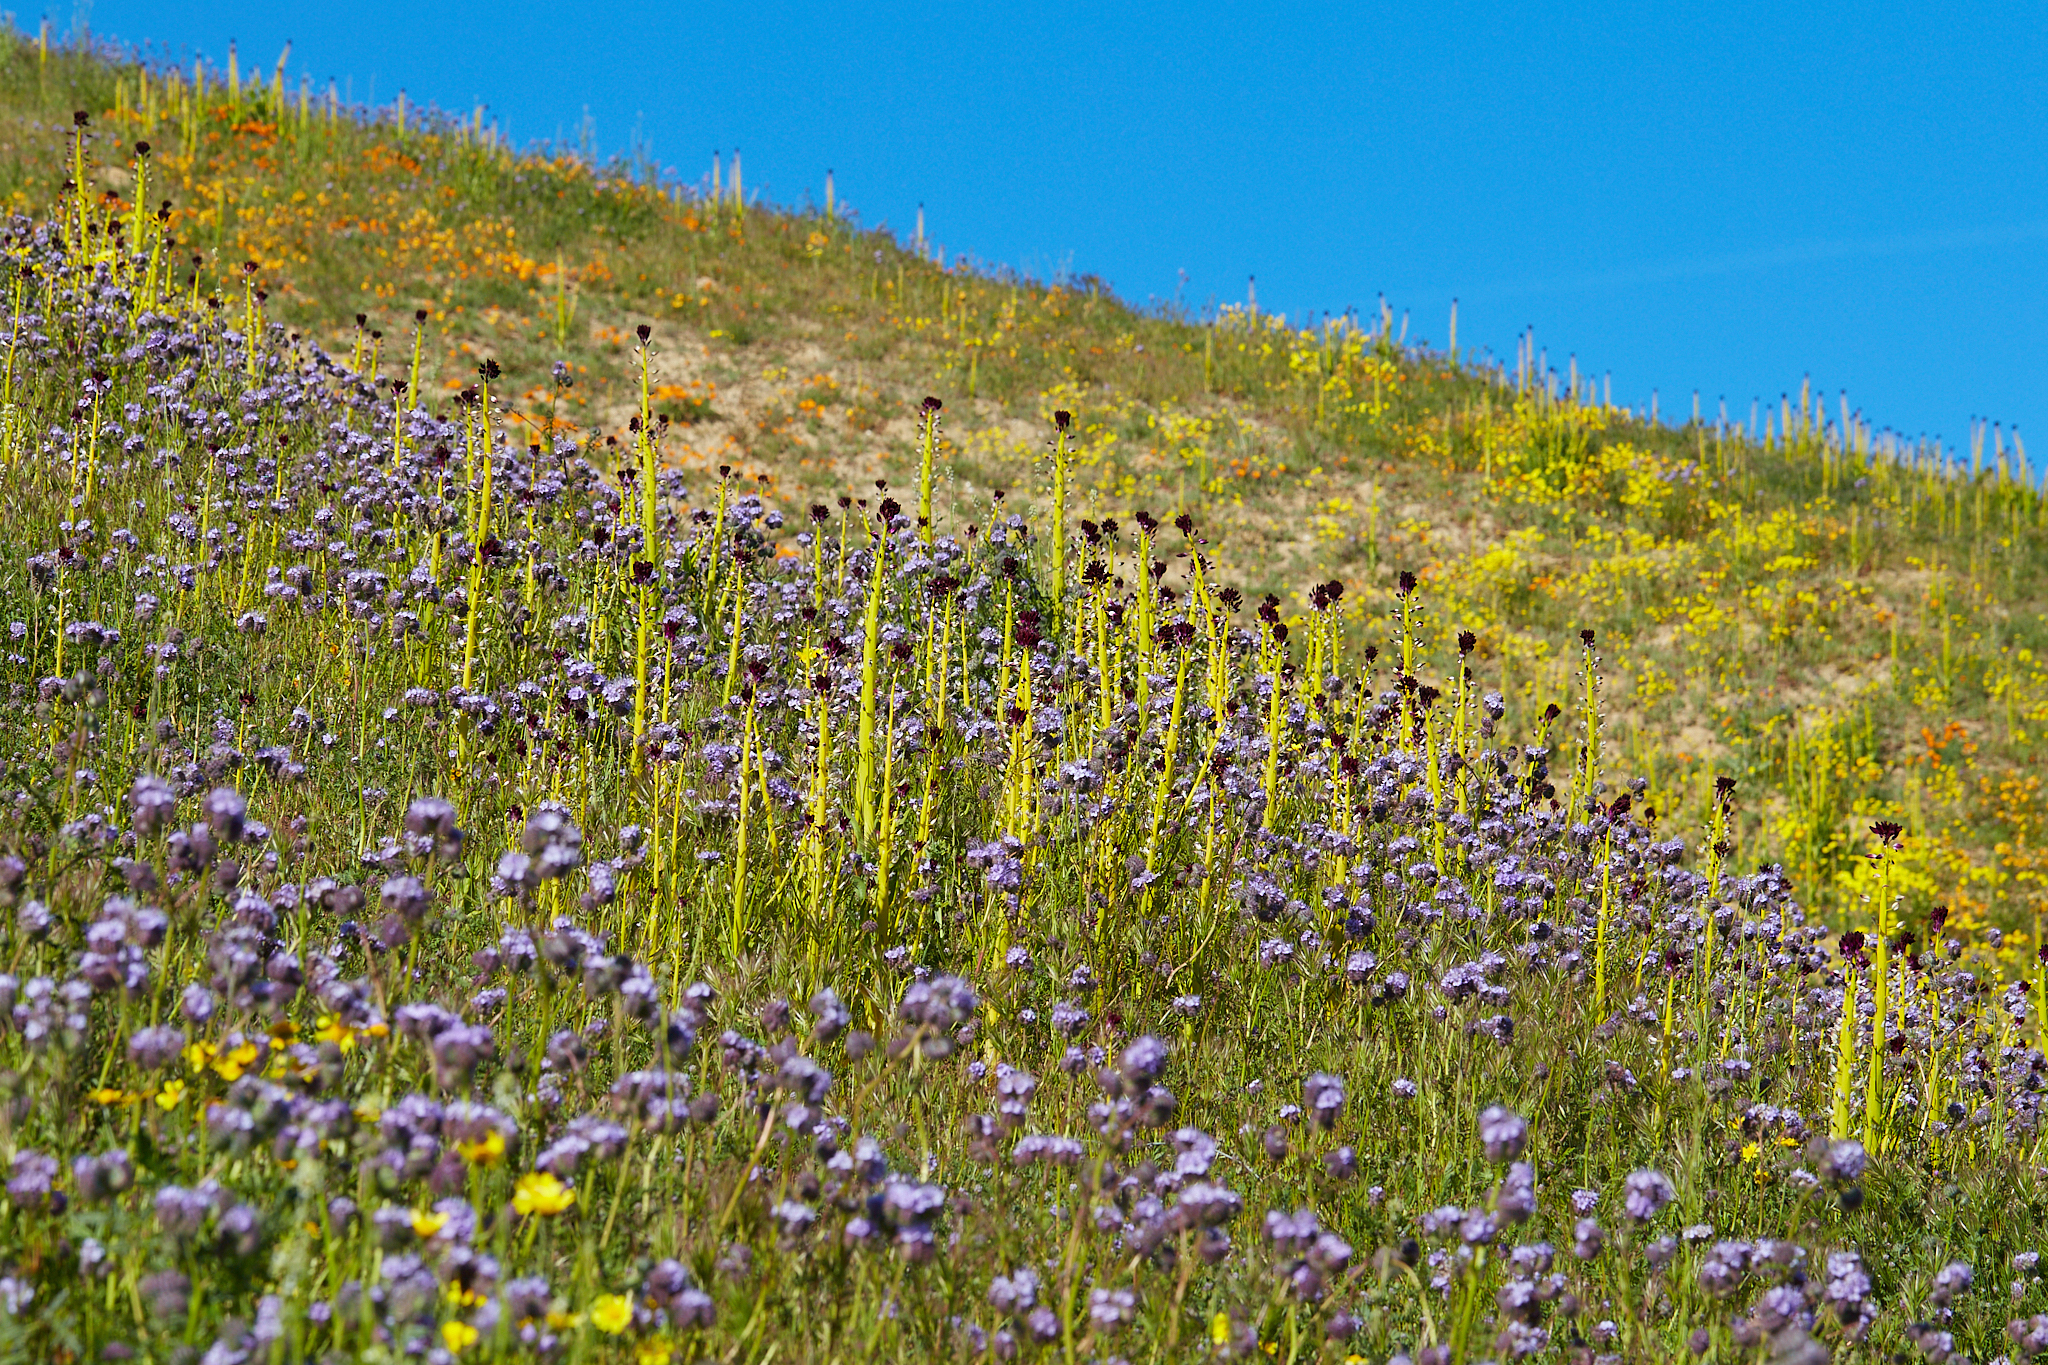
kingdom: Plantae
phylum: Tracheophyta
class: Magnoliopsida
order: Brassicales
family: Brassicaceae
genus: Streptanthus
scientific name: Streptanthus inflatus
